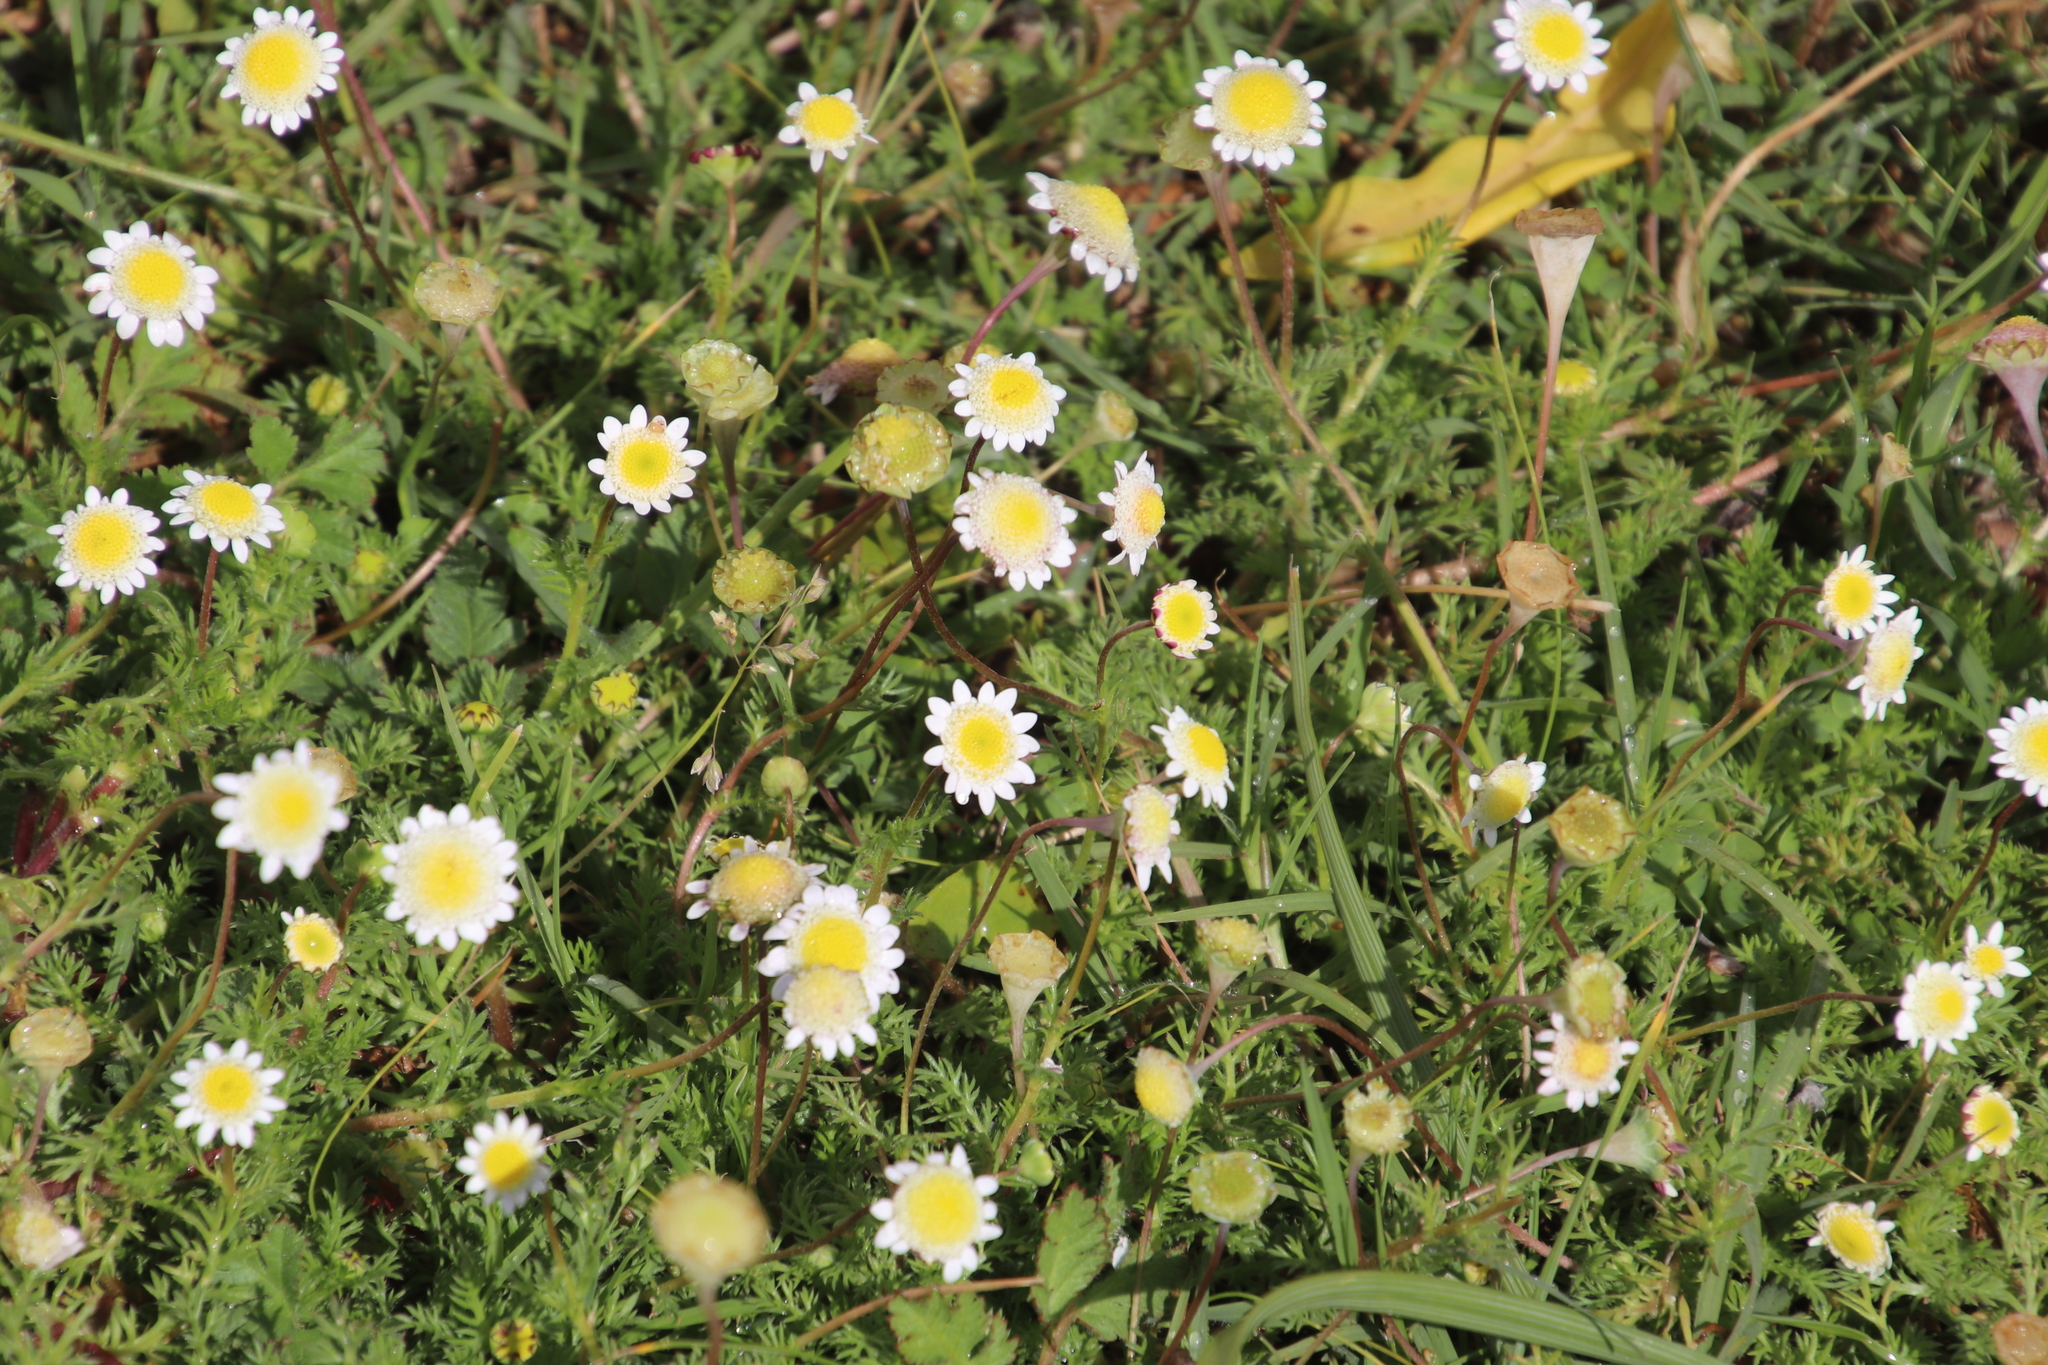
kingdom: Plantae
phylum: Tracheophyta
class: Magnoliopsida
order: Asterales
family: Asteraceae
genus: Cotula
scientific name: Cotula turbinata
